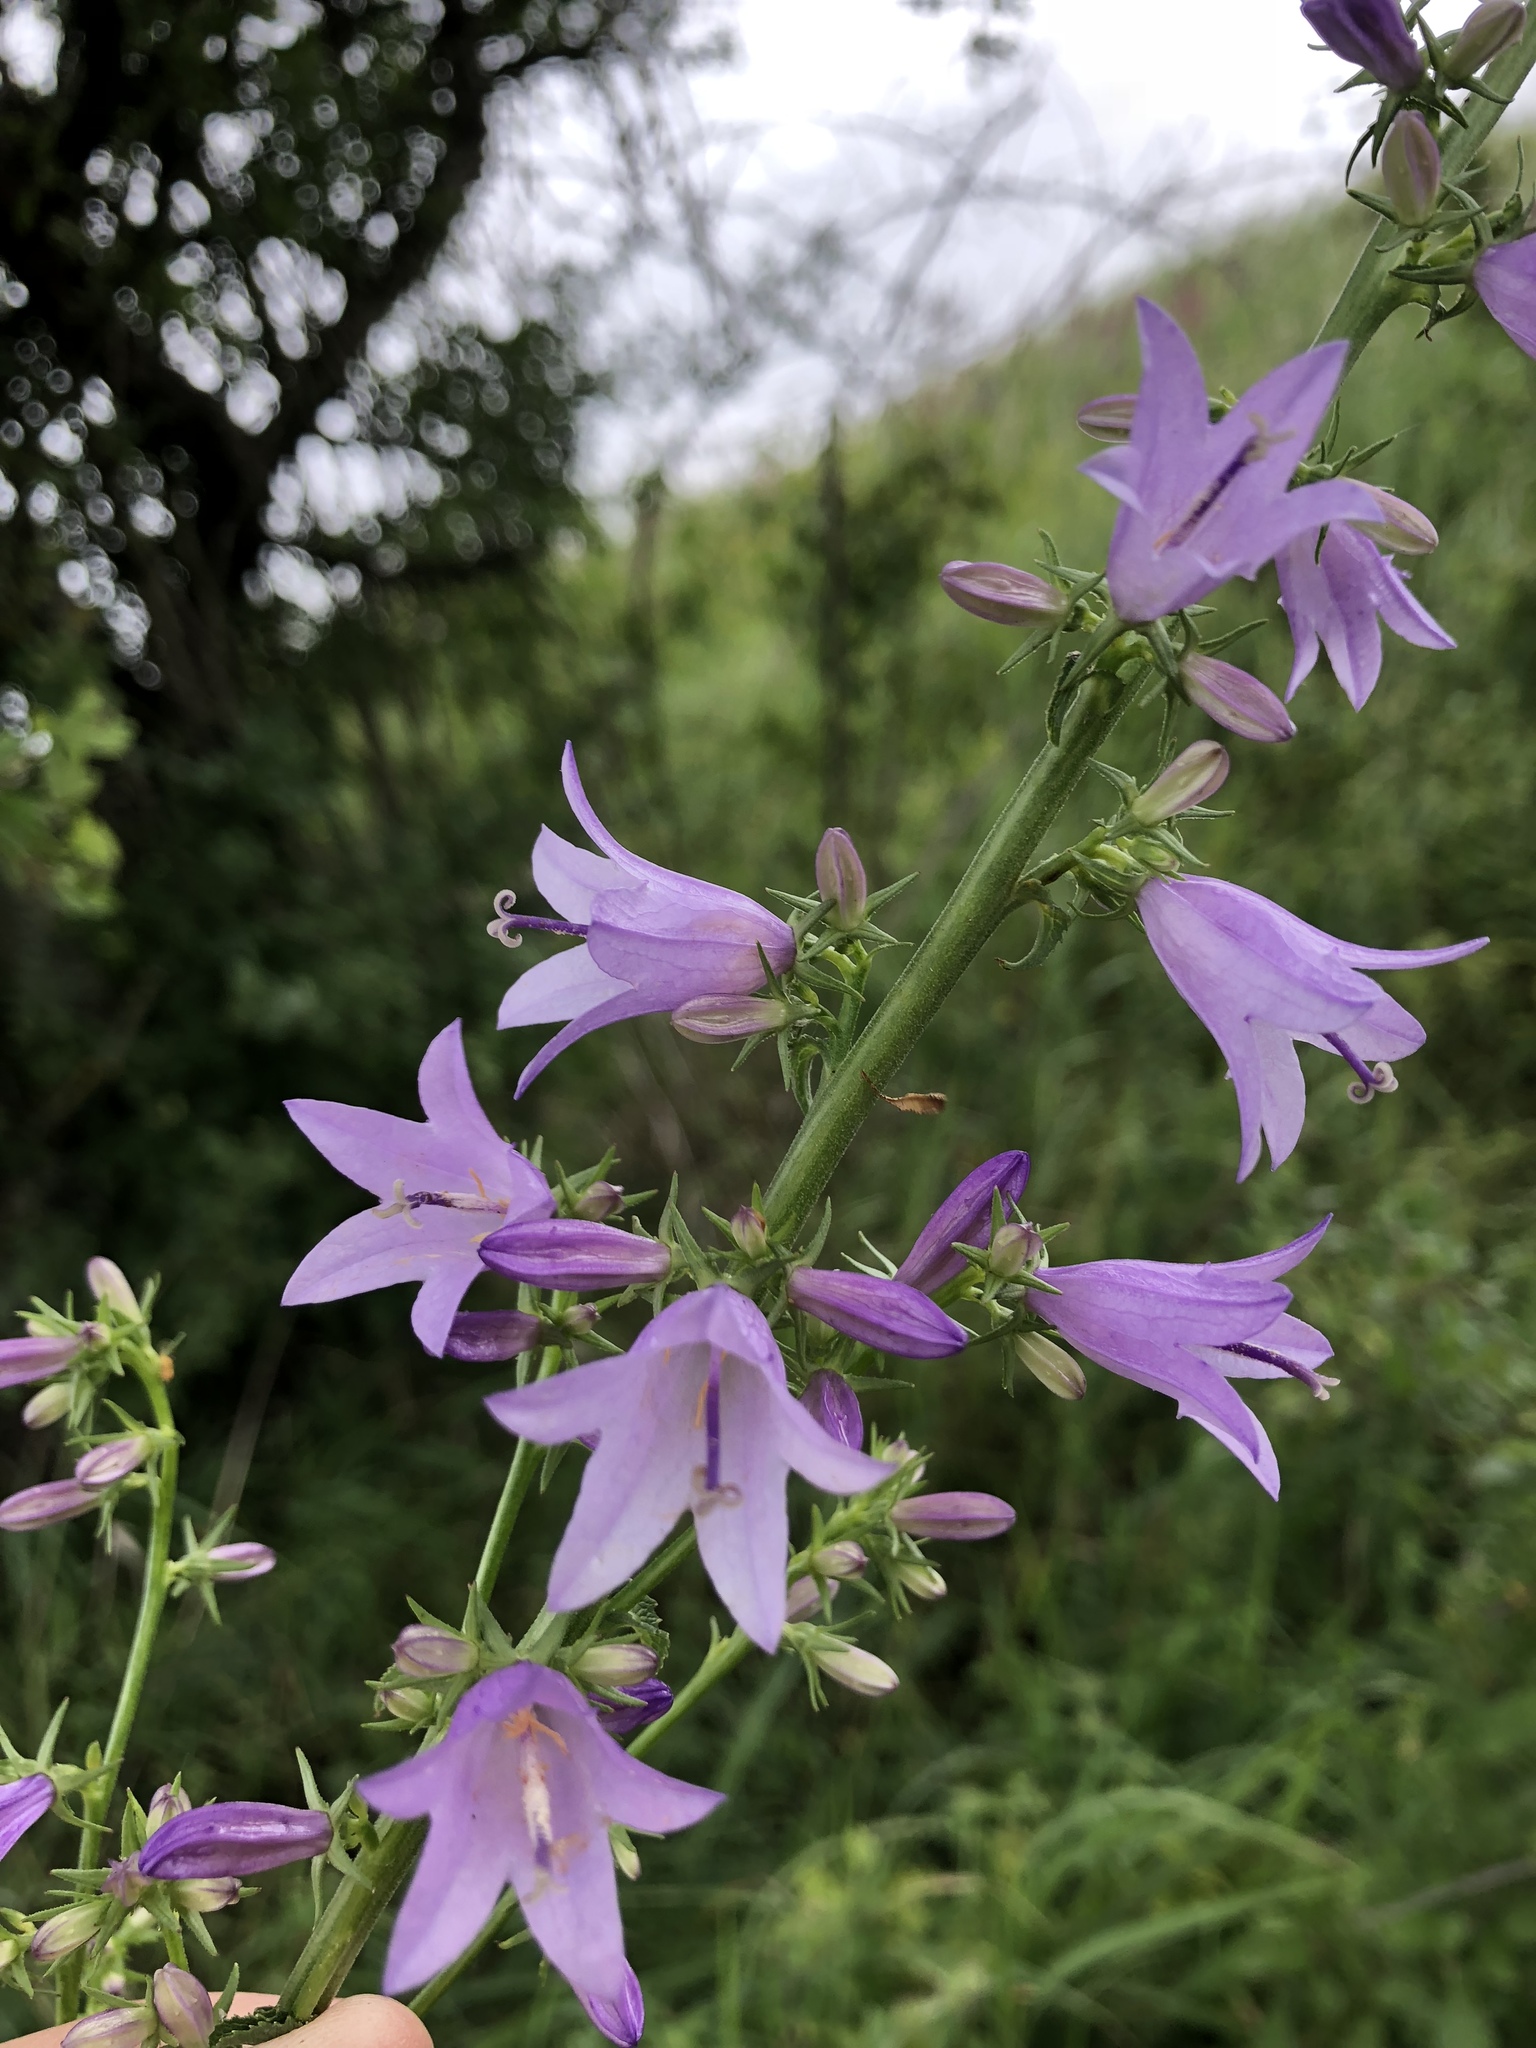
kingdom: Plantae
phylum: Tracheophyta
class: Magnoliopsida
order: Asterales
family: Campanulaceae
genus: Campanula
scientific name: Campanula bononiensis
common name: Pale bellflower
